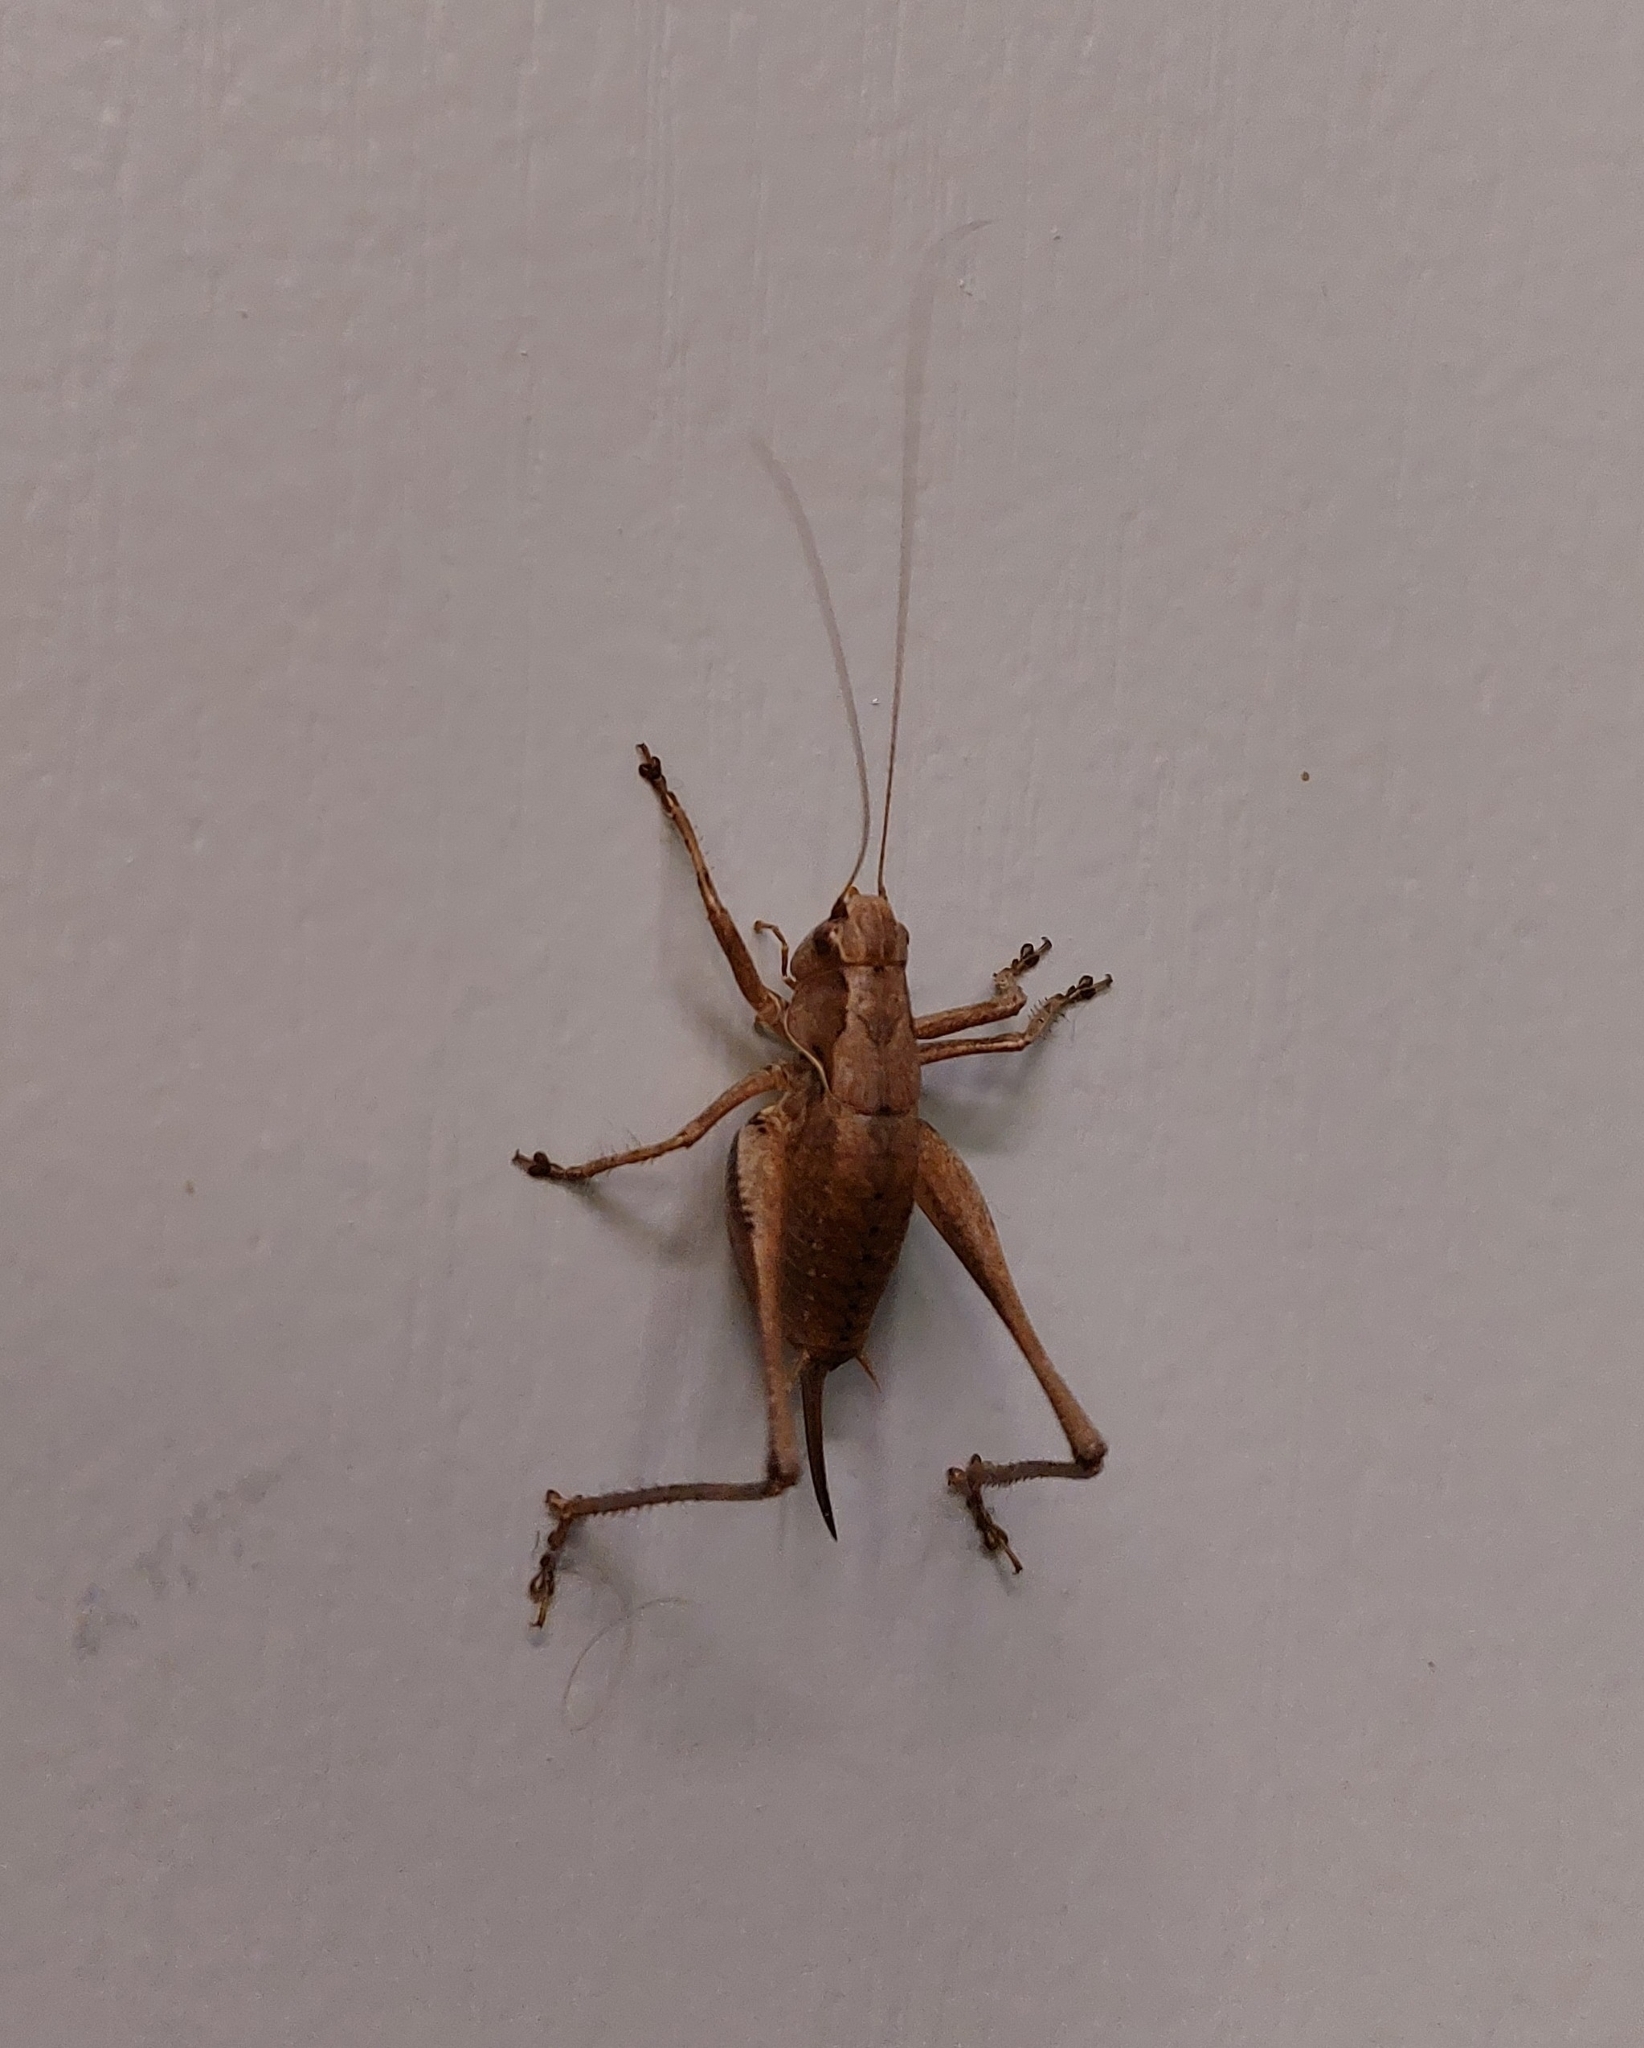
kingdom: Animalia
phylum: Arthropoda
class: Insecta
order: Orthoptera
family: Tettigoniidae
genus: Pholidoptera
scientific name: Pholidoptera griseoaptera
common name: Dark bush-cricket
